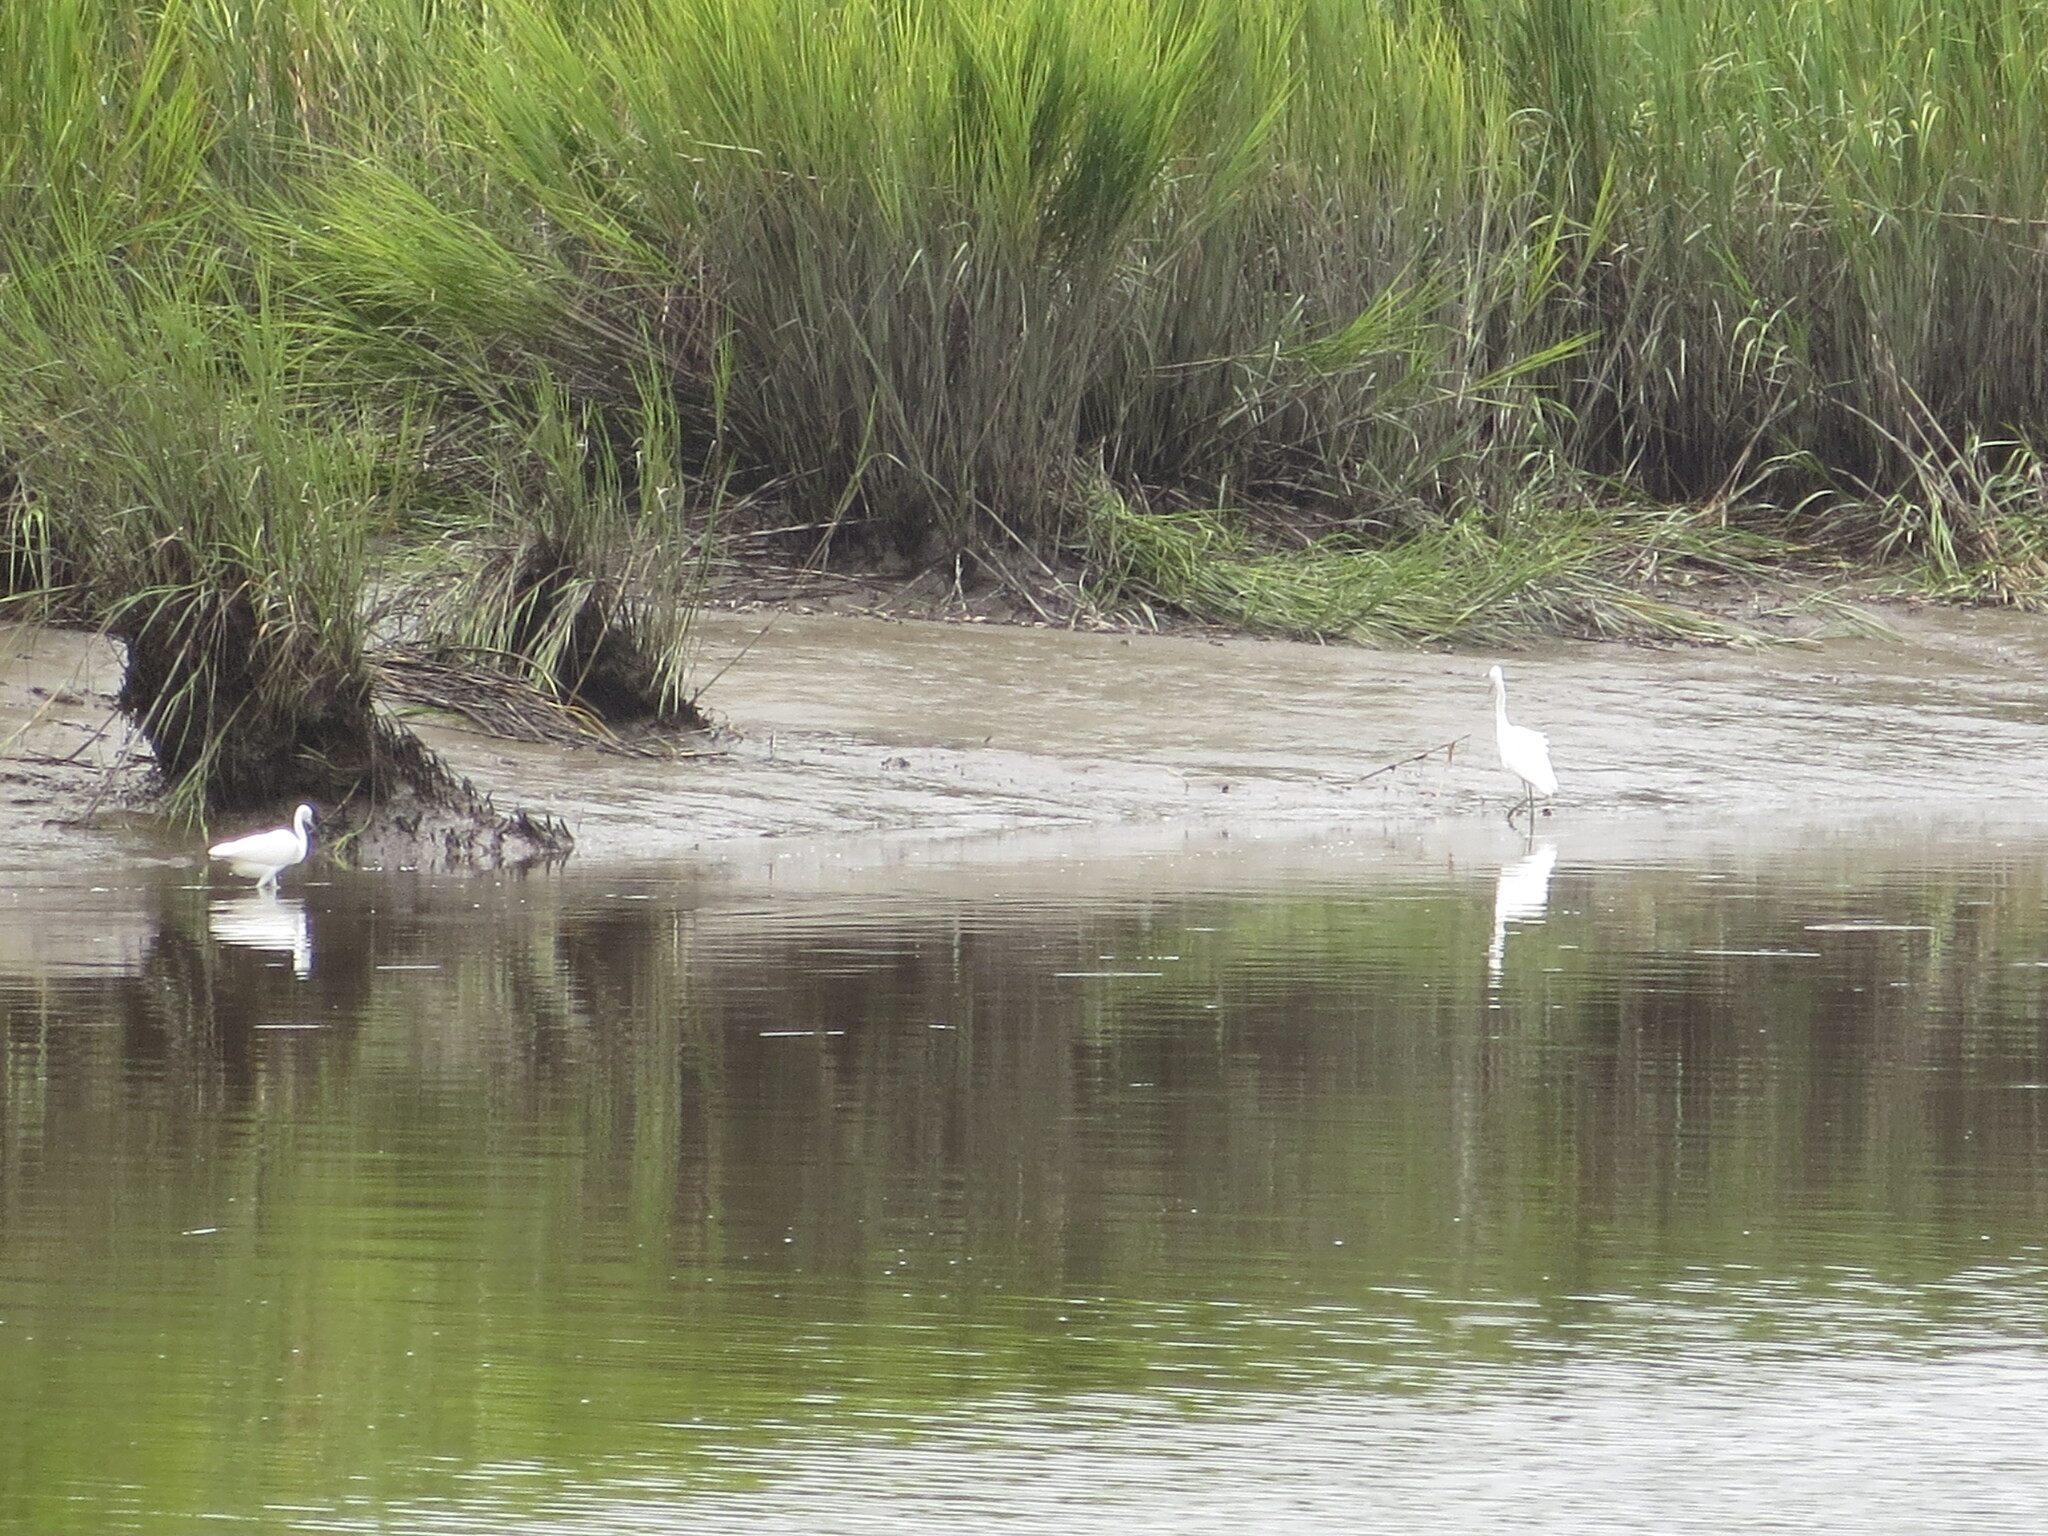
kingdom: Animalia
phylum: Chordata
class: Aves
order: Pelecaniformes
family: Ardeidae
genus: Ardea
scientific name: Ardea alba
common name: Great egret
